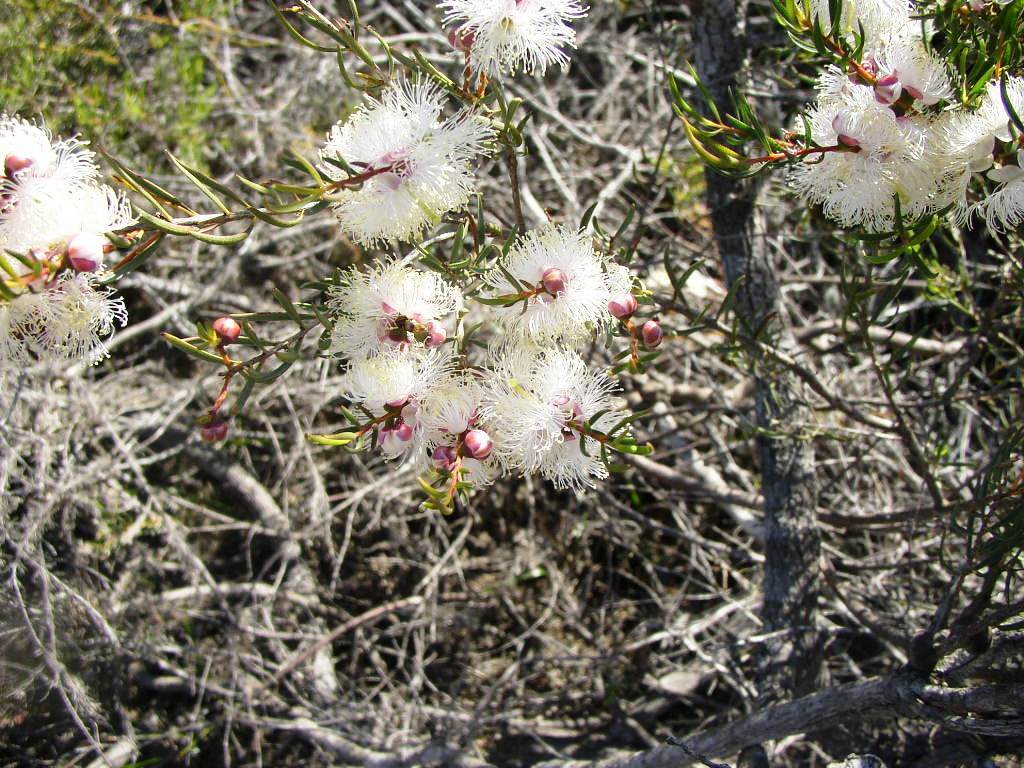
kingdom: Plantae
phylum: Tracheophyta
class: Magnoliopsida
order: Myrtales
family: Myrtaceae
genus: Melaleuca
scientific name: Melaleuca radula
